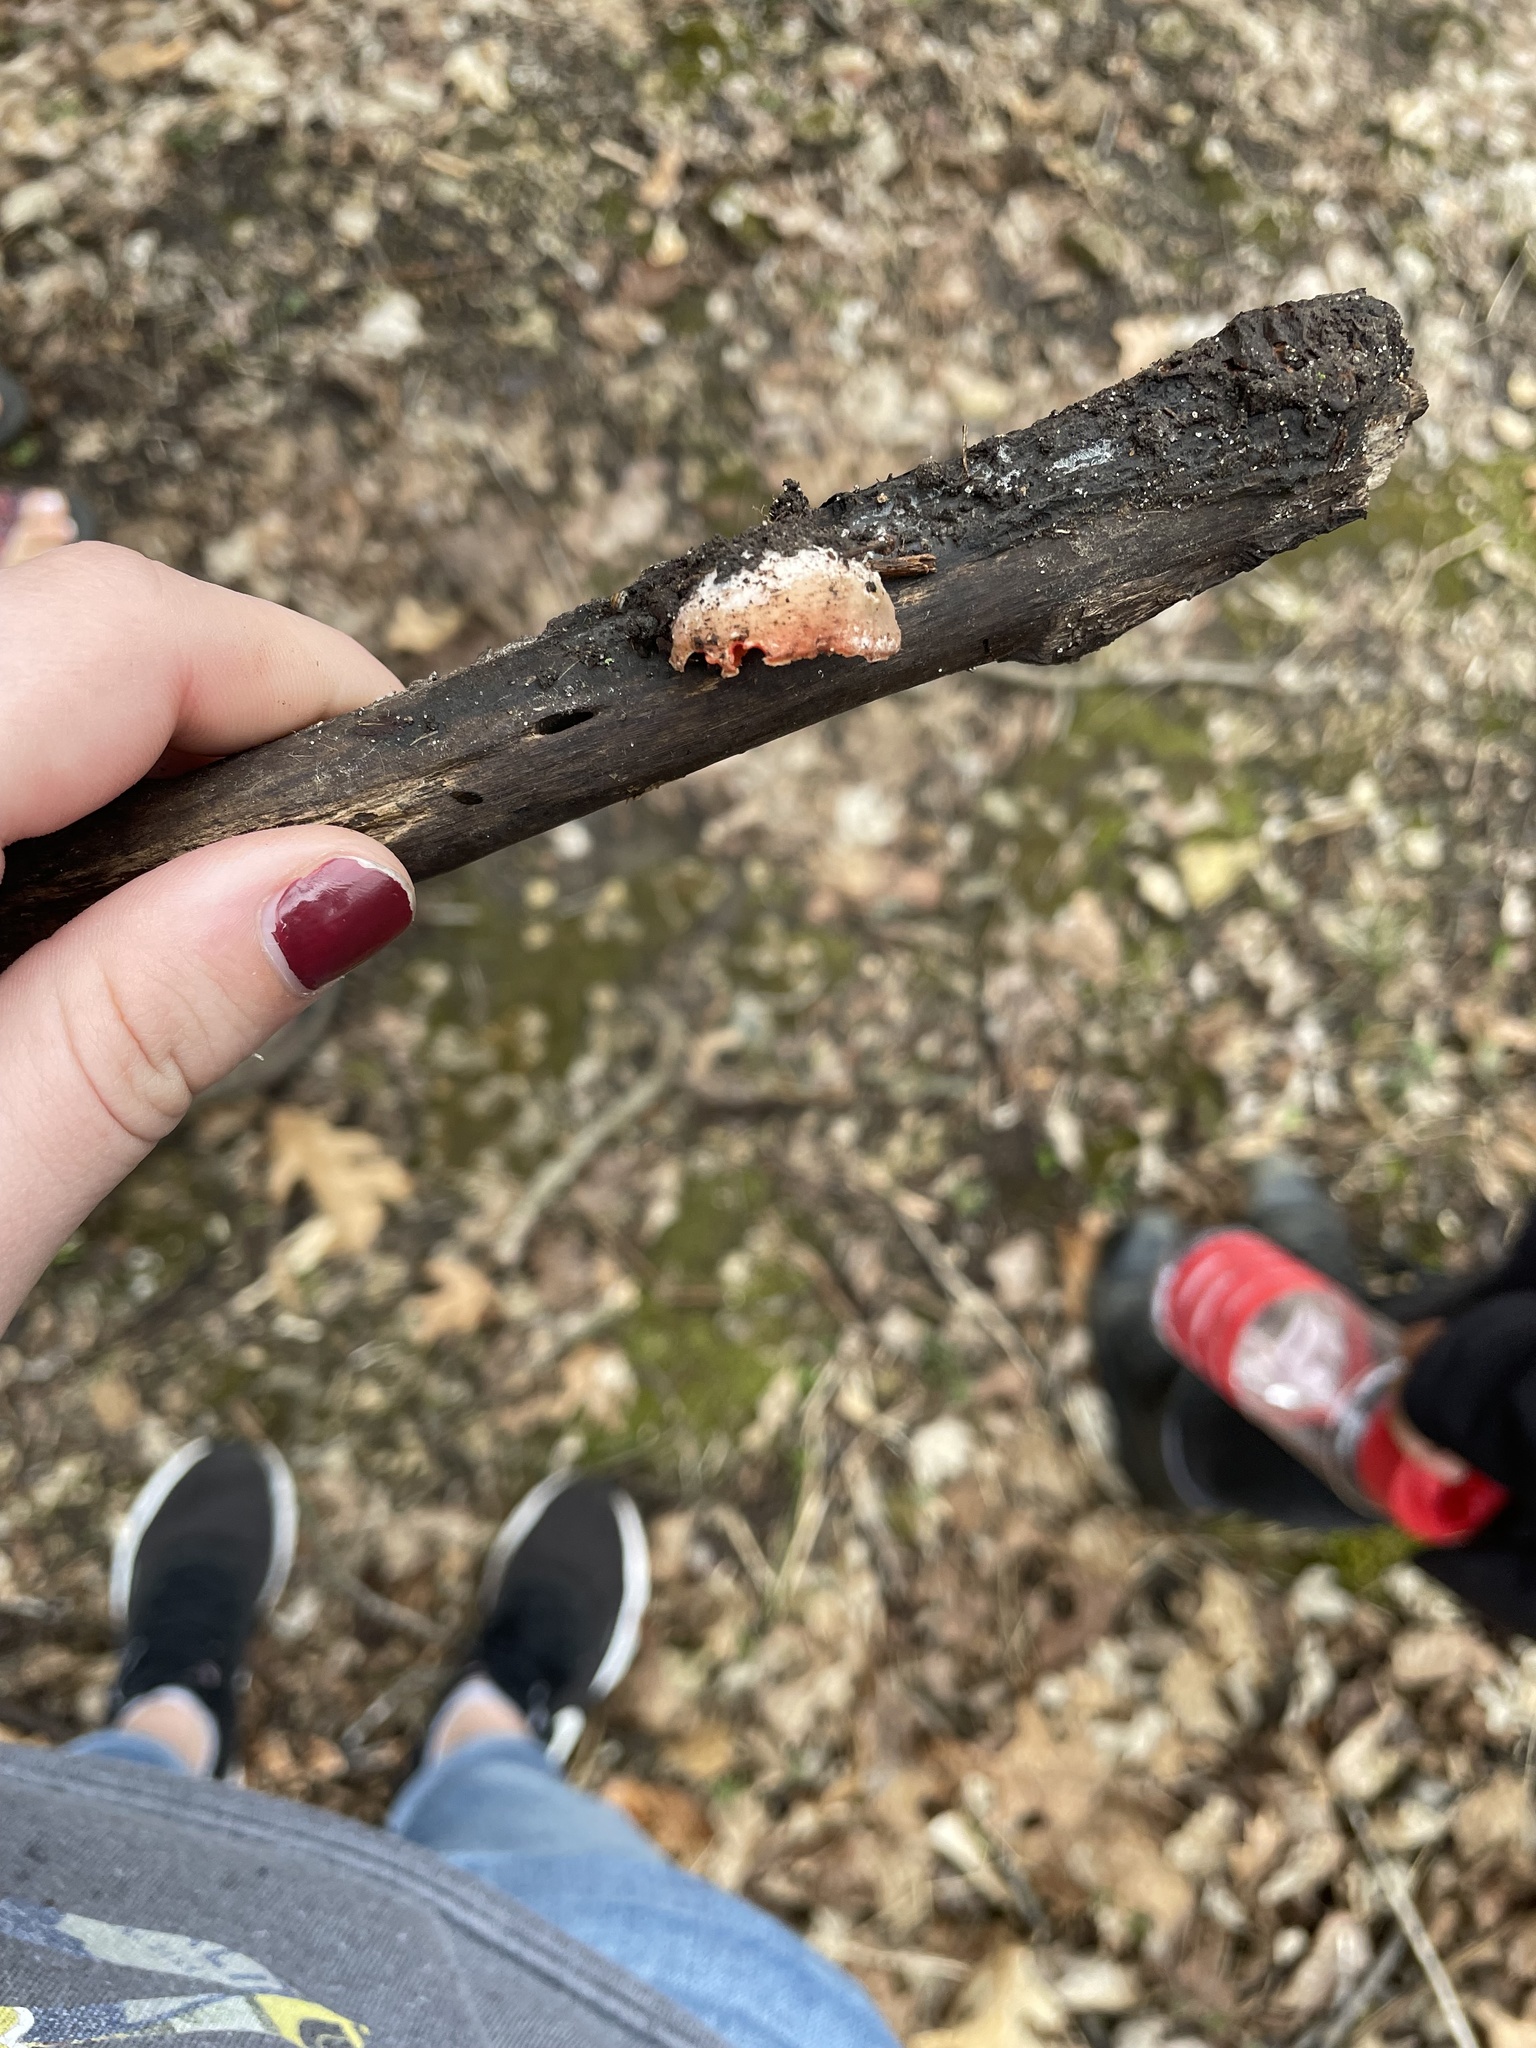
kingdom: Fungi
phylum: Ascomycota
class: Pezizomycetes
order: Pezizales
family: Sarcoscyphaceae
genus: Sarcoscypha
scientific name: Sarcoscypha austriaca
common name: Scarlet elfcup
